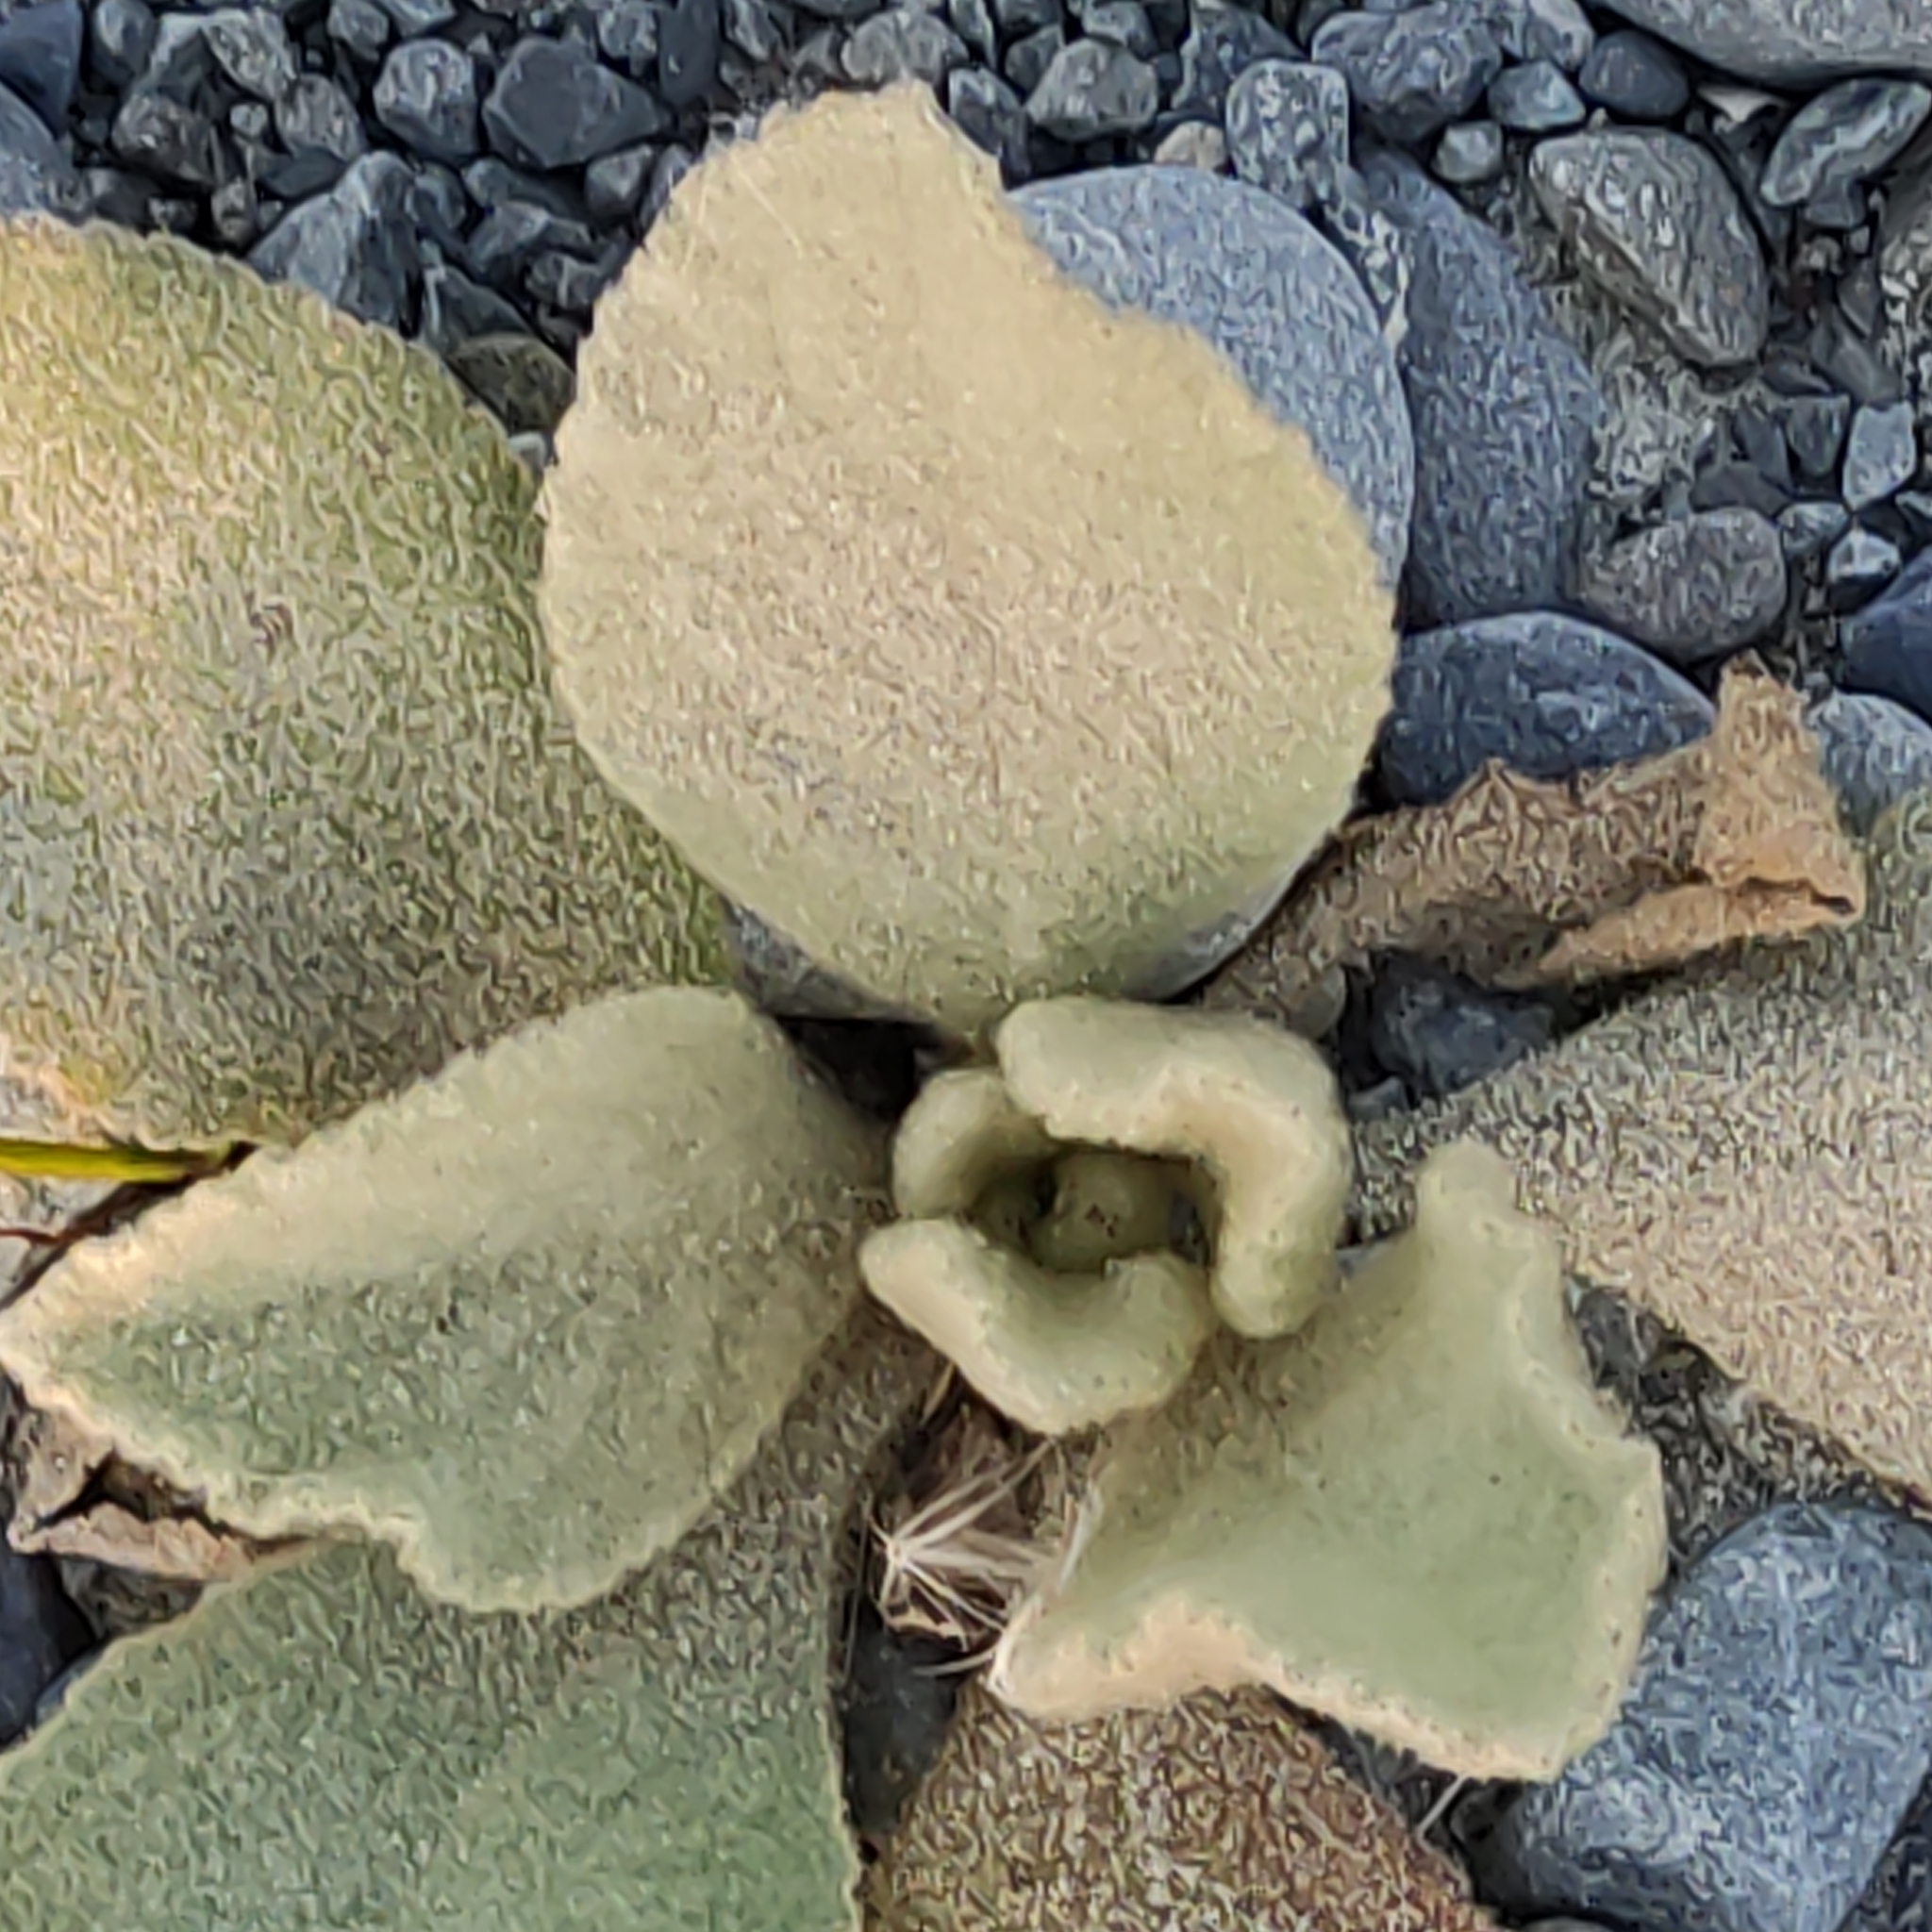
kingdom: Plantae
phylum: Tracheophyta
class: Magnoliopsida
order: Lamiales
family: Scrophulariaceae
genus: Verbascum
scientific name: Verbascum thapsus
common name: Common mullein
